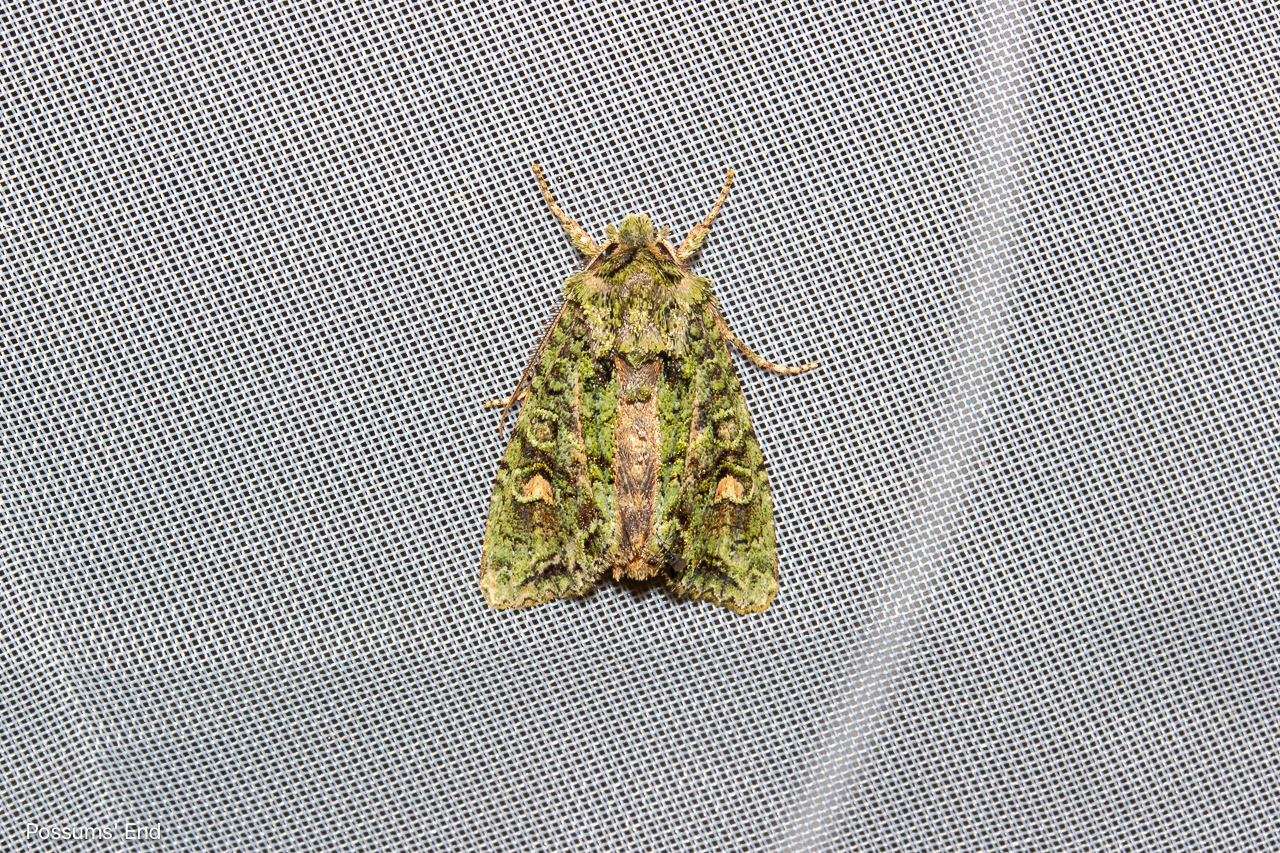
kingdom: Animalia
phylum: Arthropoda
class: Insecta
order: Lepidoptera
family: Noctuidae
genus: Ichneutica
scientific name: Ichneutica
